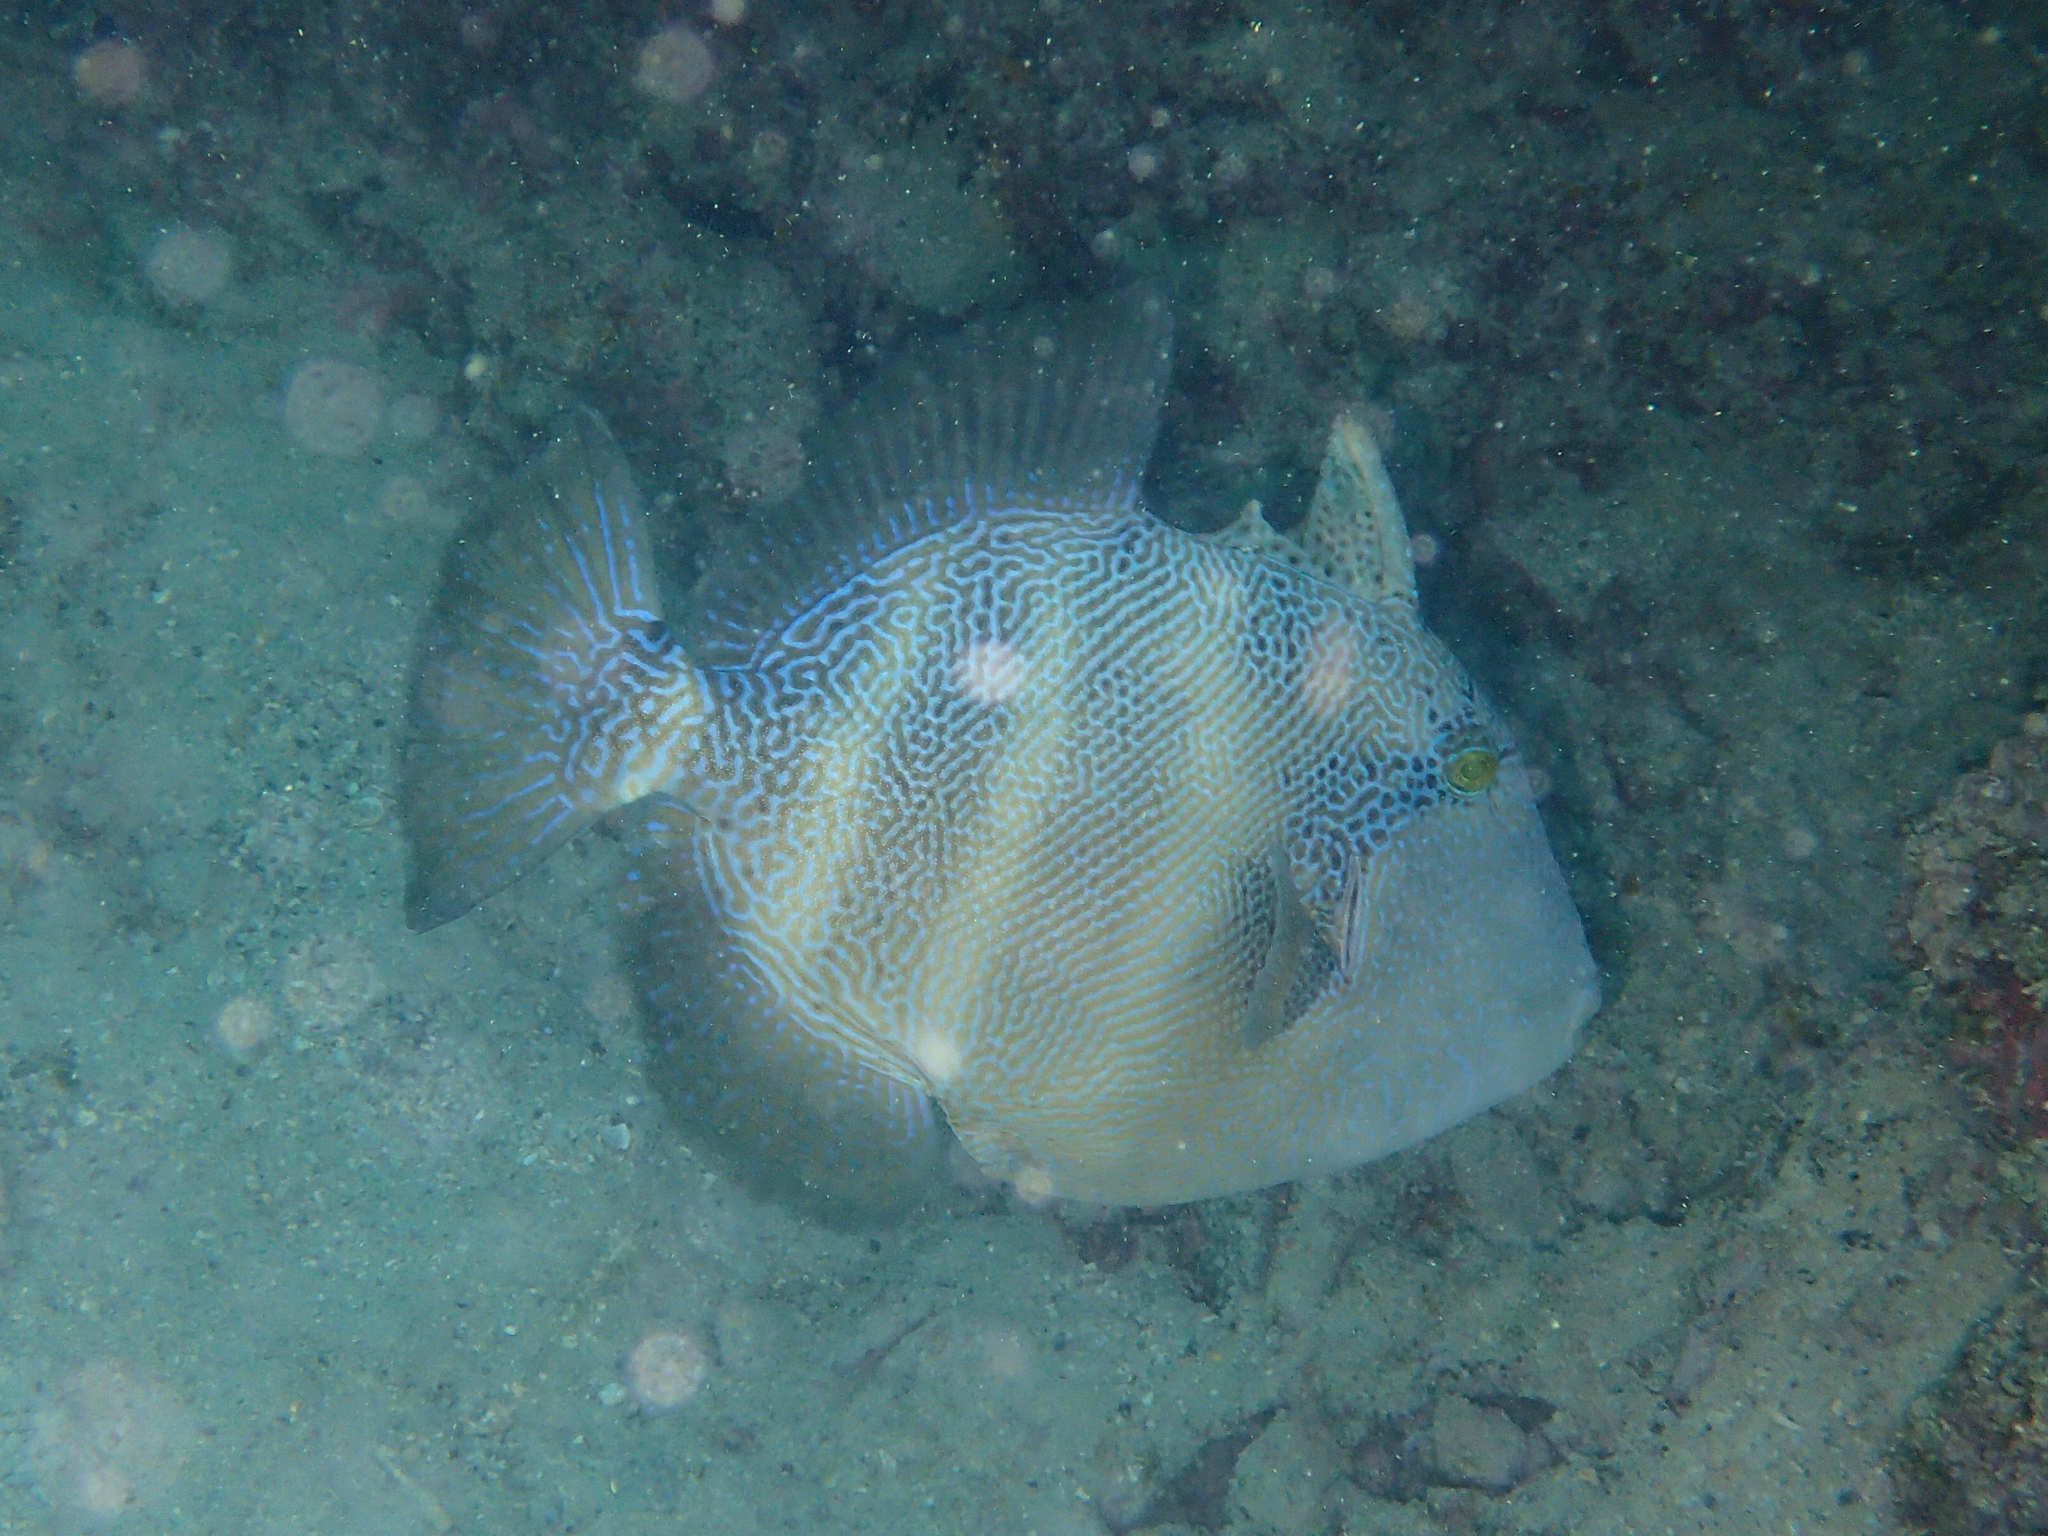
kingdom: Animalia
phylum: Chordata
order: Tetraodontiformes
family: Balistidae
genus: Pseudobalistes
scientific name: Pseudobalistes naufragium
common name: Blunthead triggerfish
